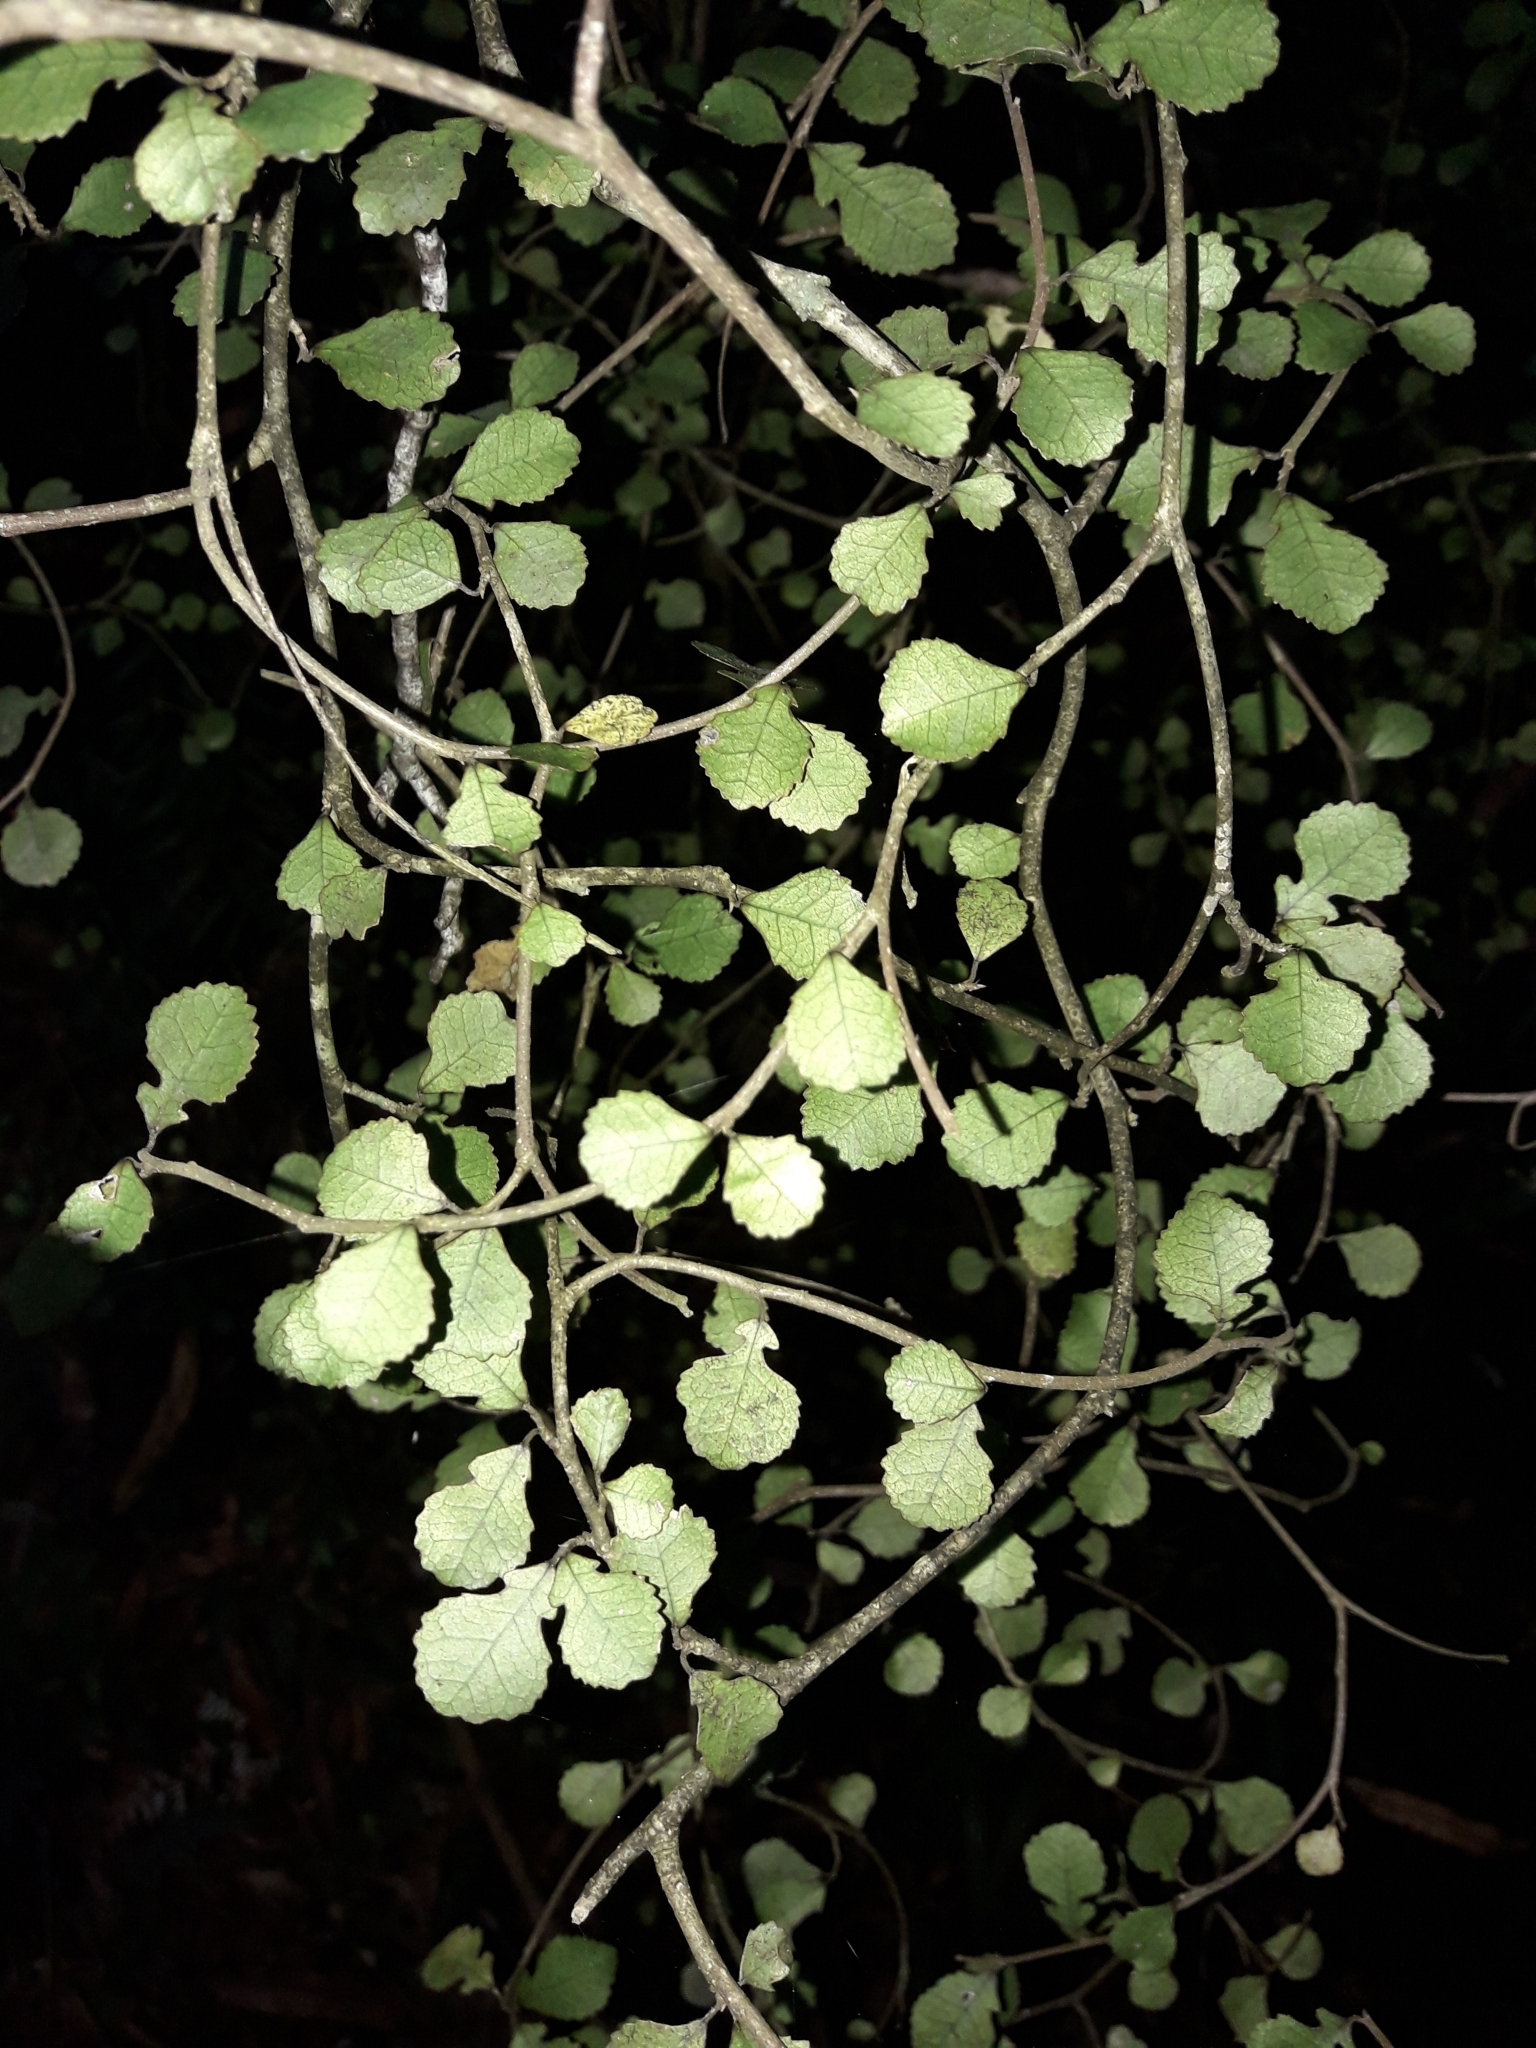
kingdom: Plantae
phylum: Tracheophyta
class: Magnoliopsida
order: Rosales
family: Moraceae
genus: Paratrophis
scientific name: Paratrophis microphylla
